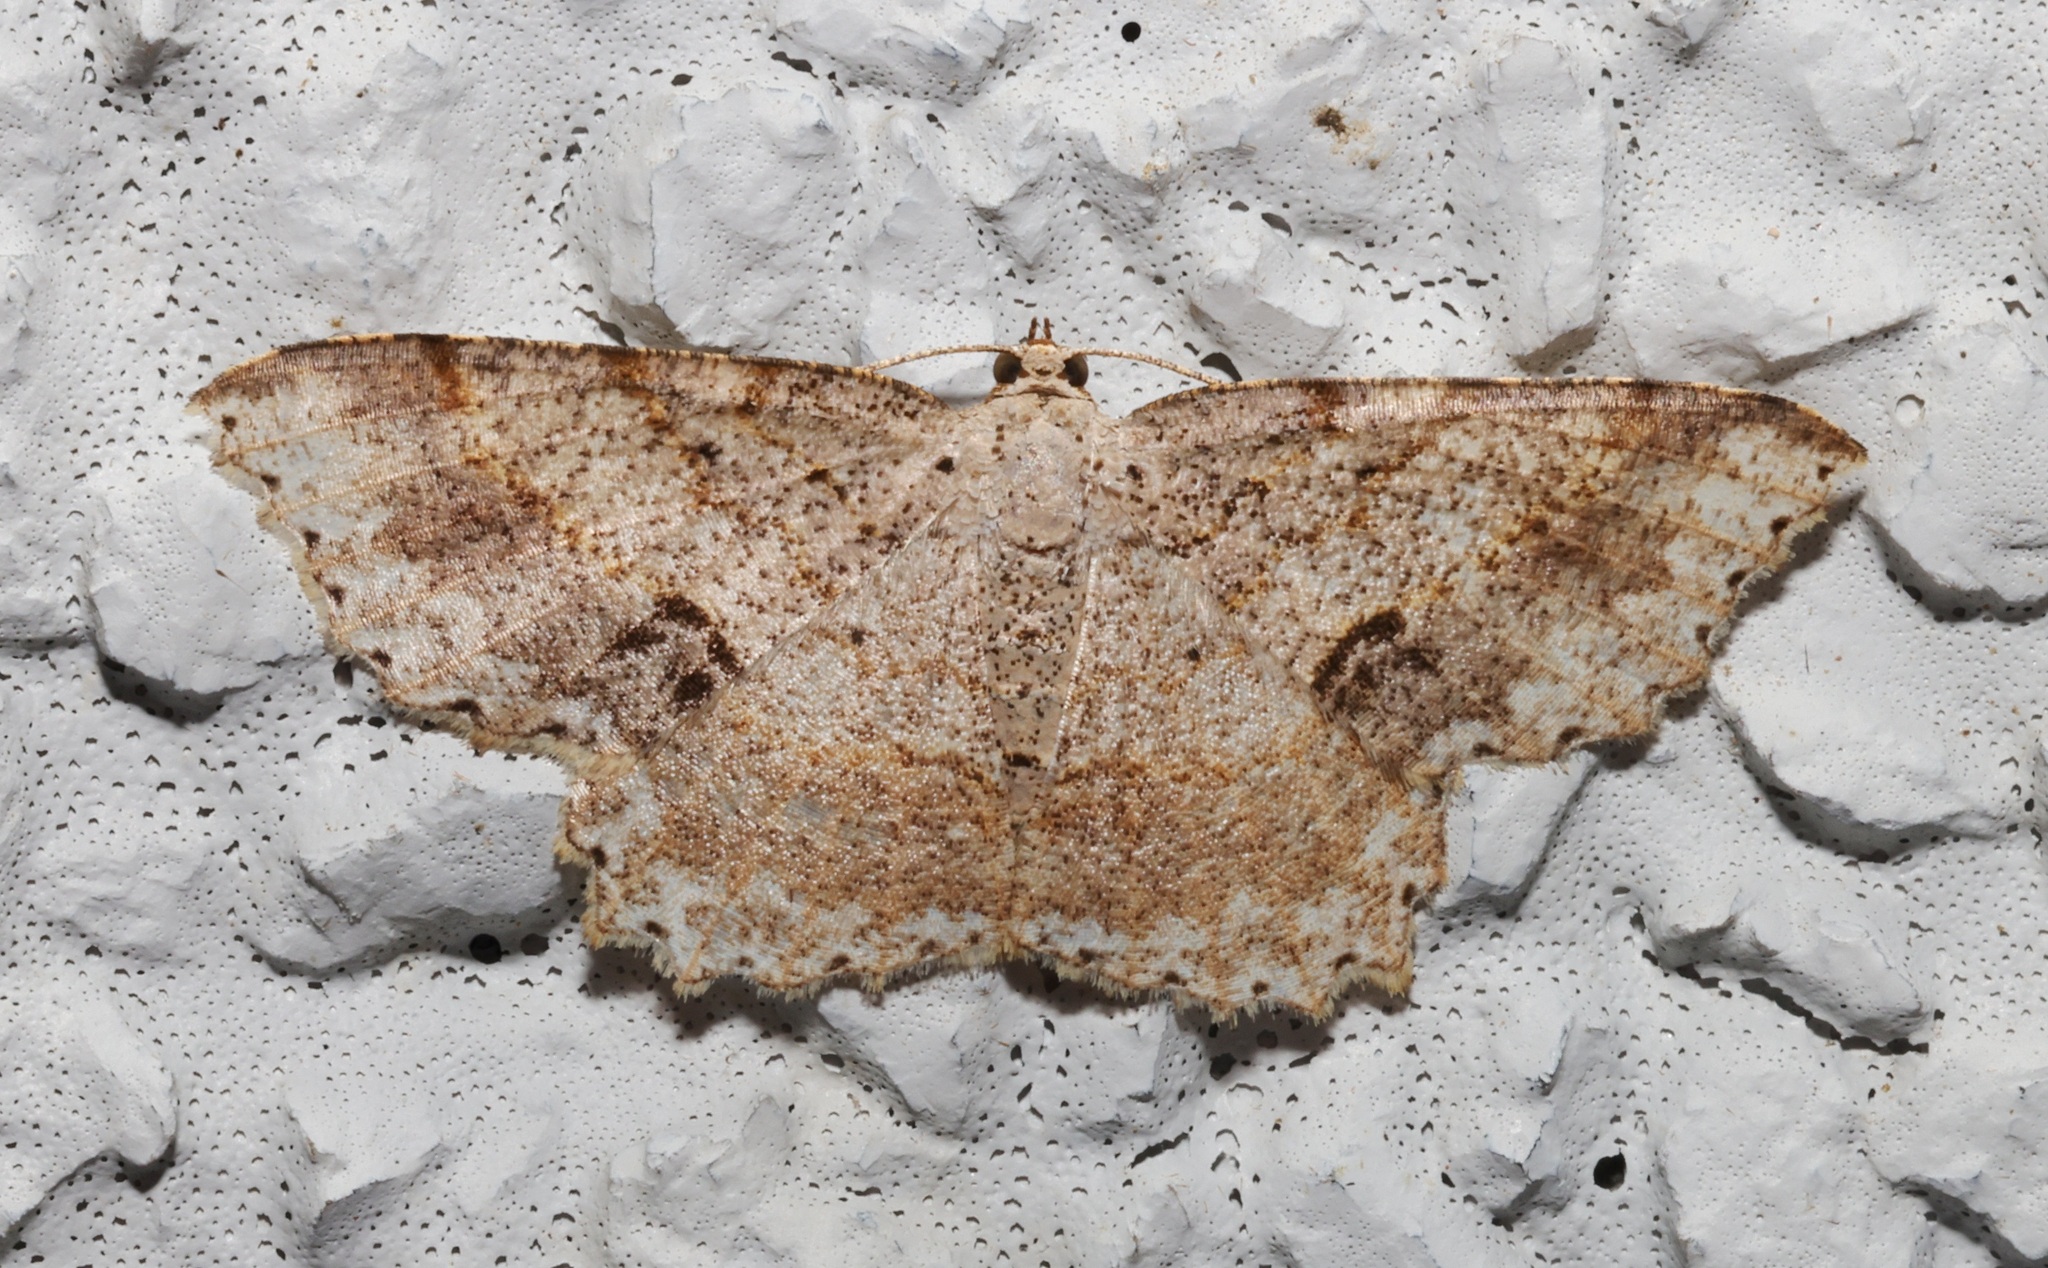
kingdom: Animalia
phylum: Arthropoda
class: Insecta
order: Lepidoptera
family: Geometridae
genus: Calletaera
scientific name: Calletaera subexpressa
